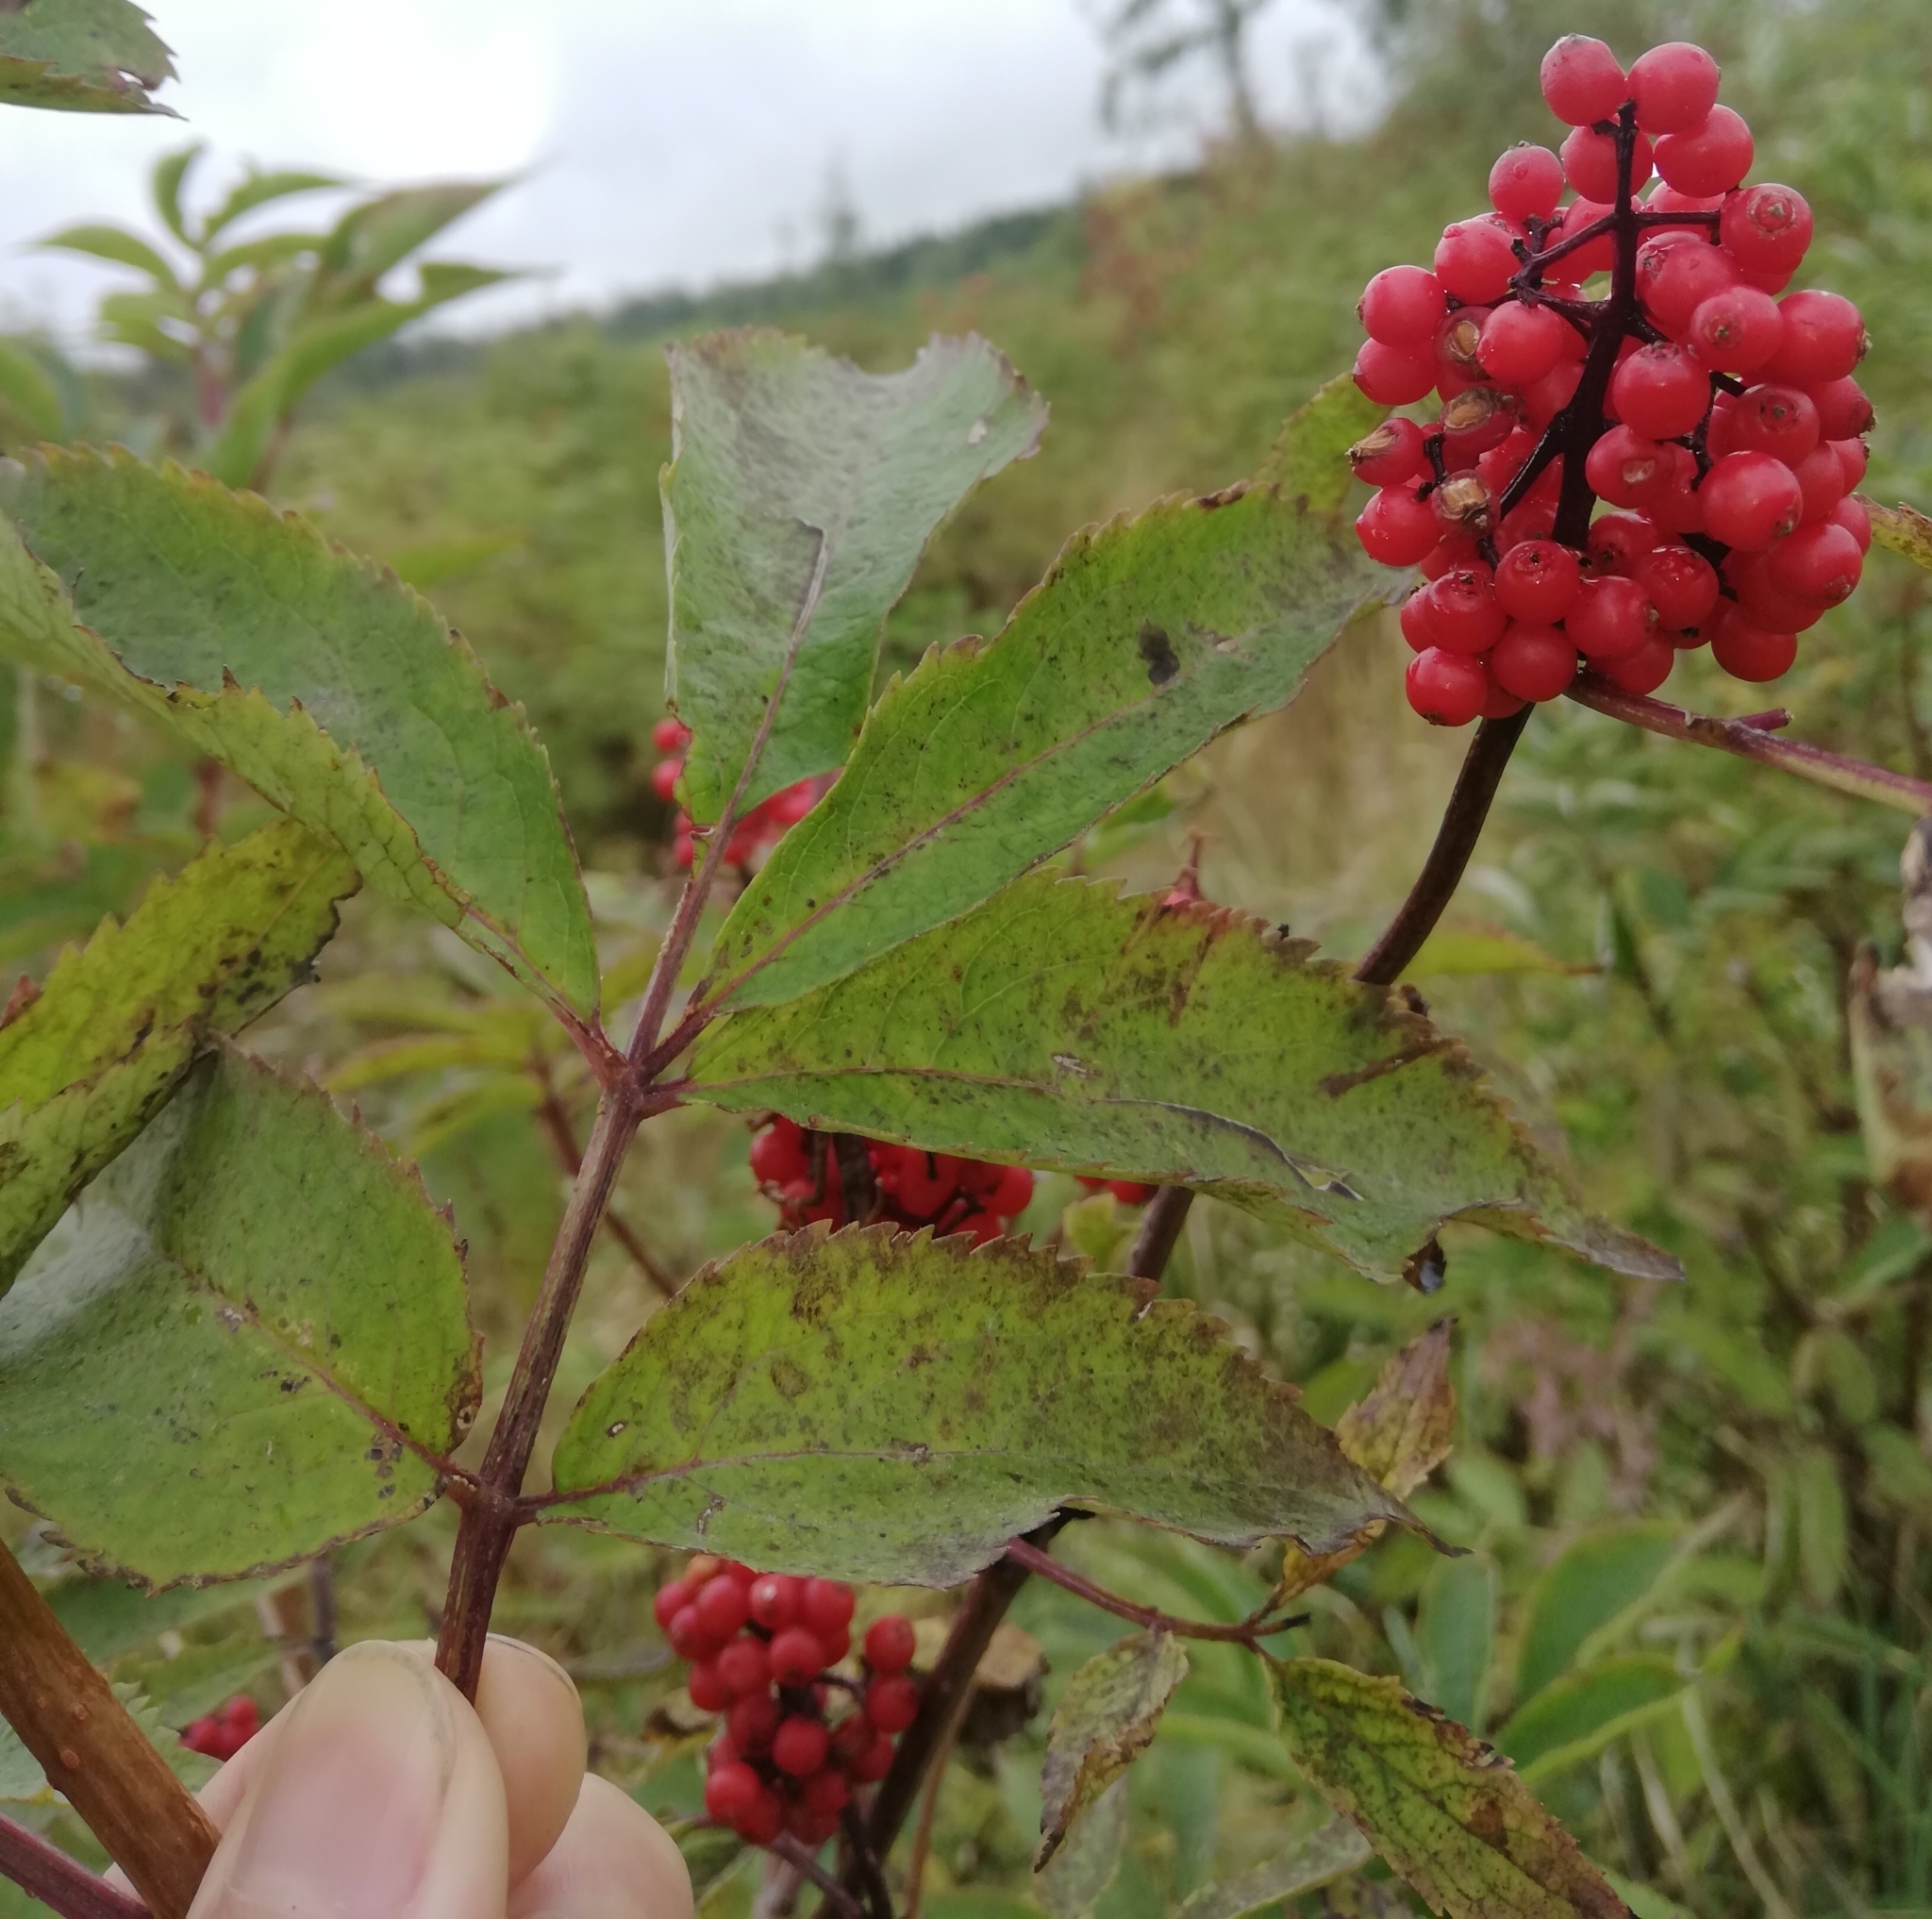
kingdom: Plantae
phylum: Tracheophyta
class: Magnoliopsida
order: Dipsacales
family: Viburnaceae
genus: Sambucus
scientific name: Sambucus racemosa
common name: Red-berried elder
